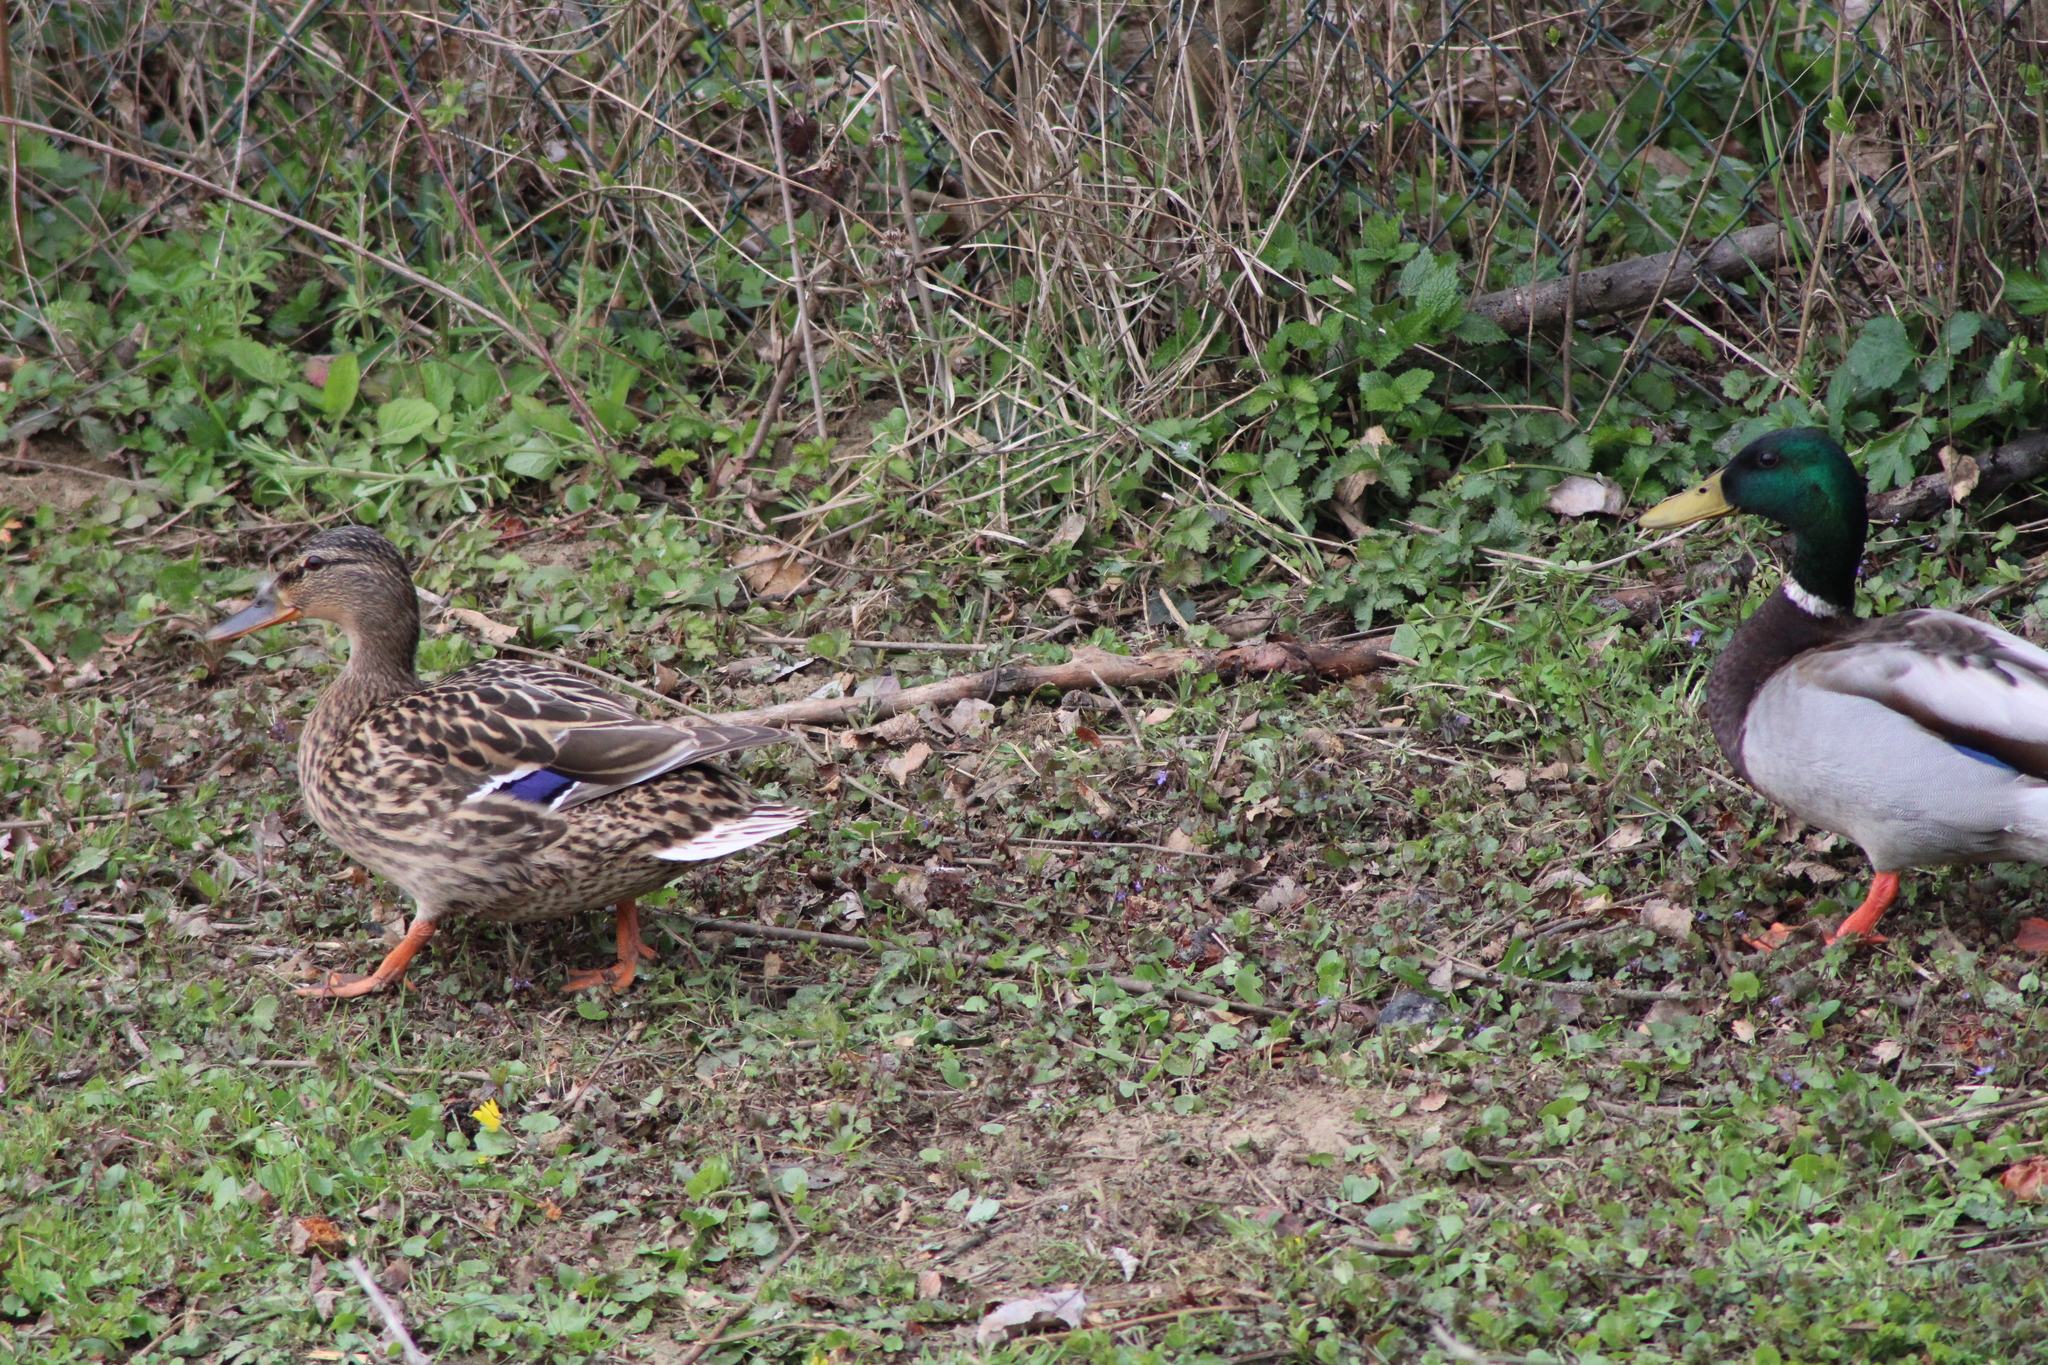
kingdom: Animalia
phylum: Chordata
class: Aves
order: Anseriformes
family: Anatidae
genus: Anas
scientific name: Anas platyrhynchos
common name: Mallard
